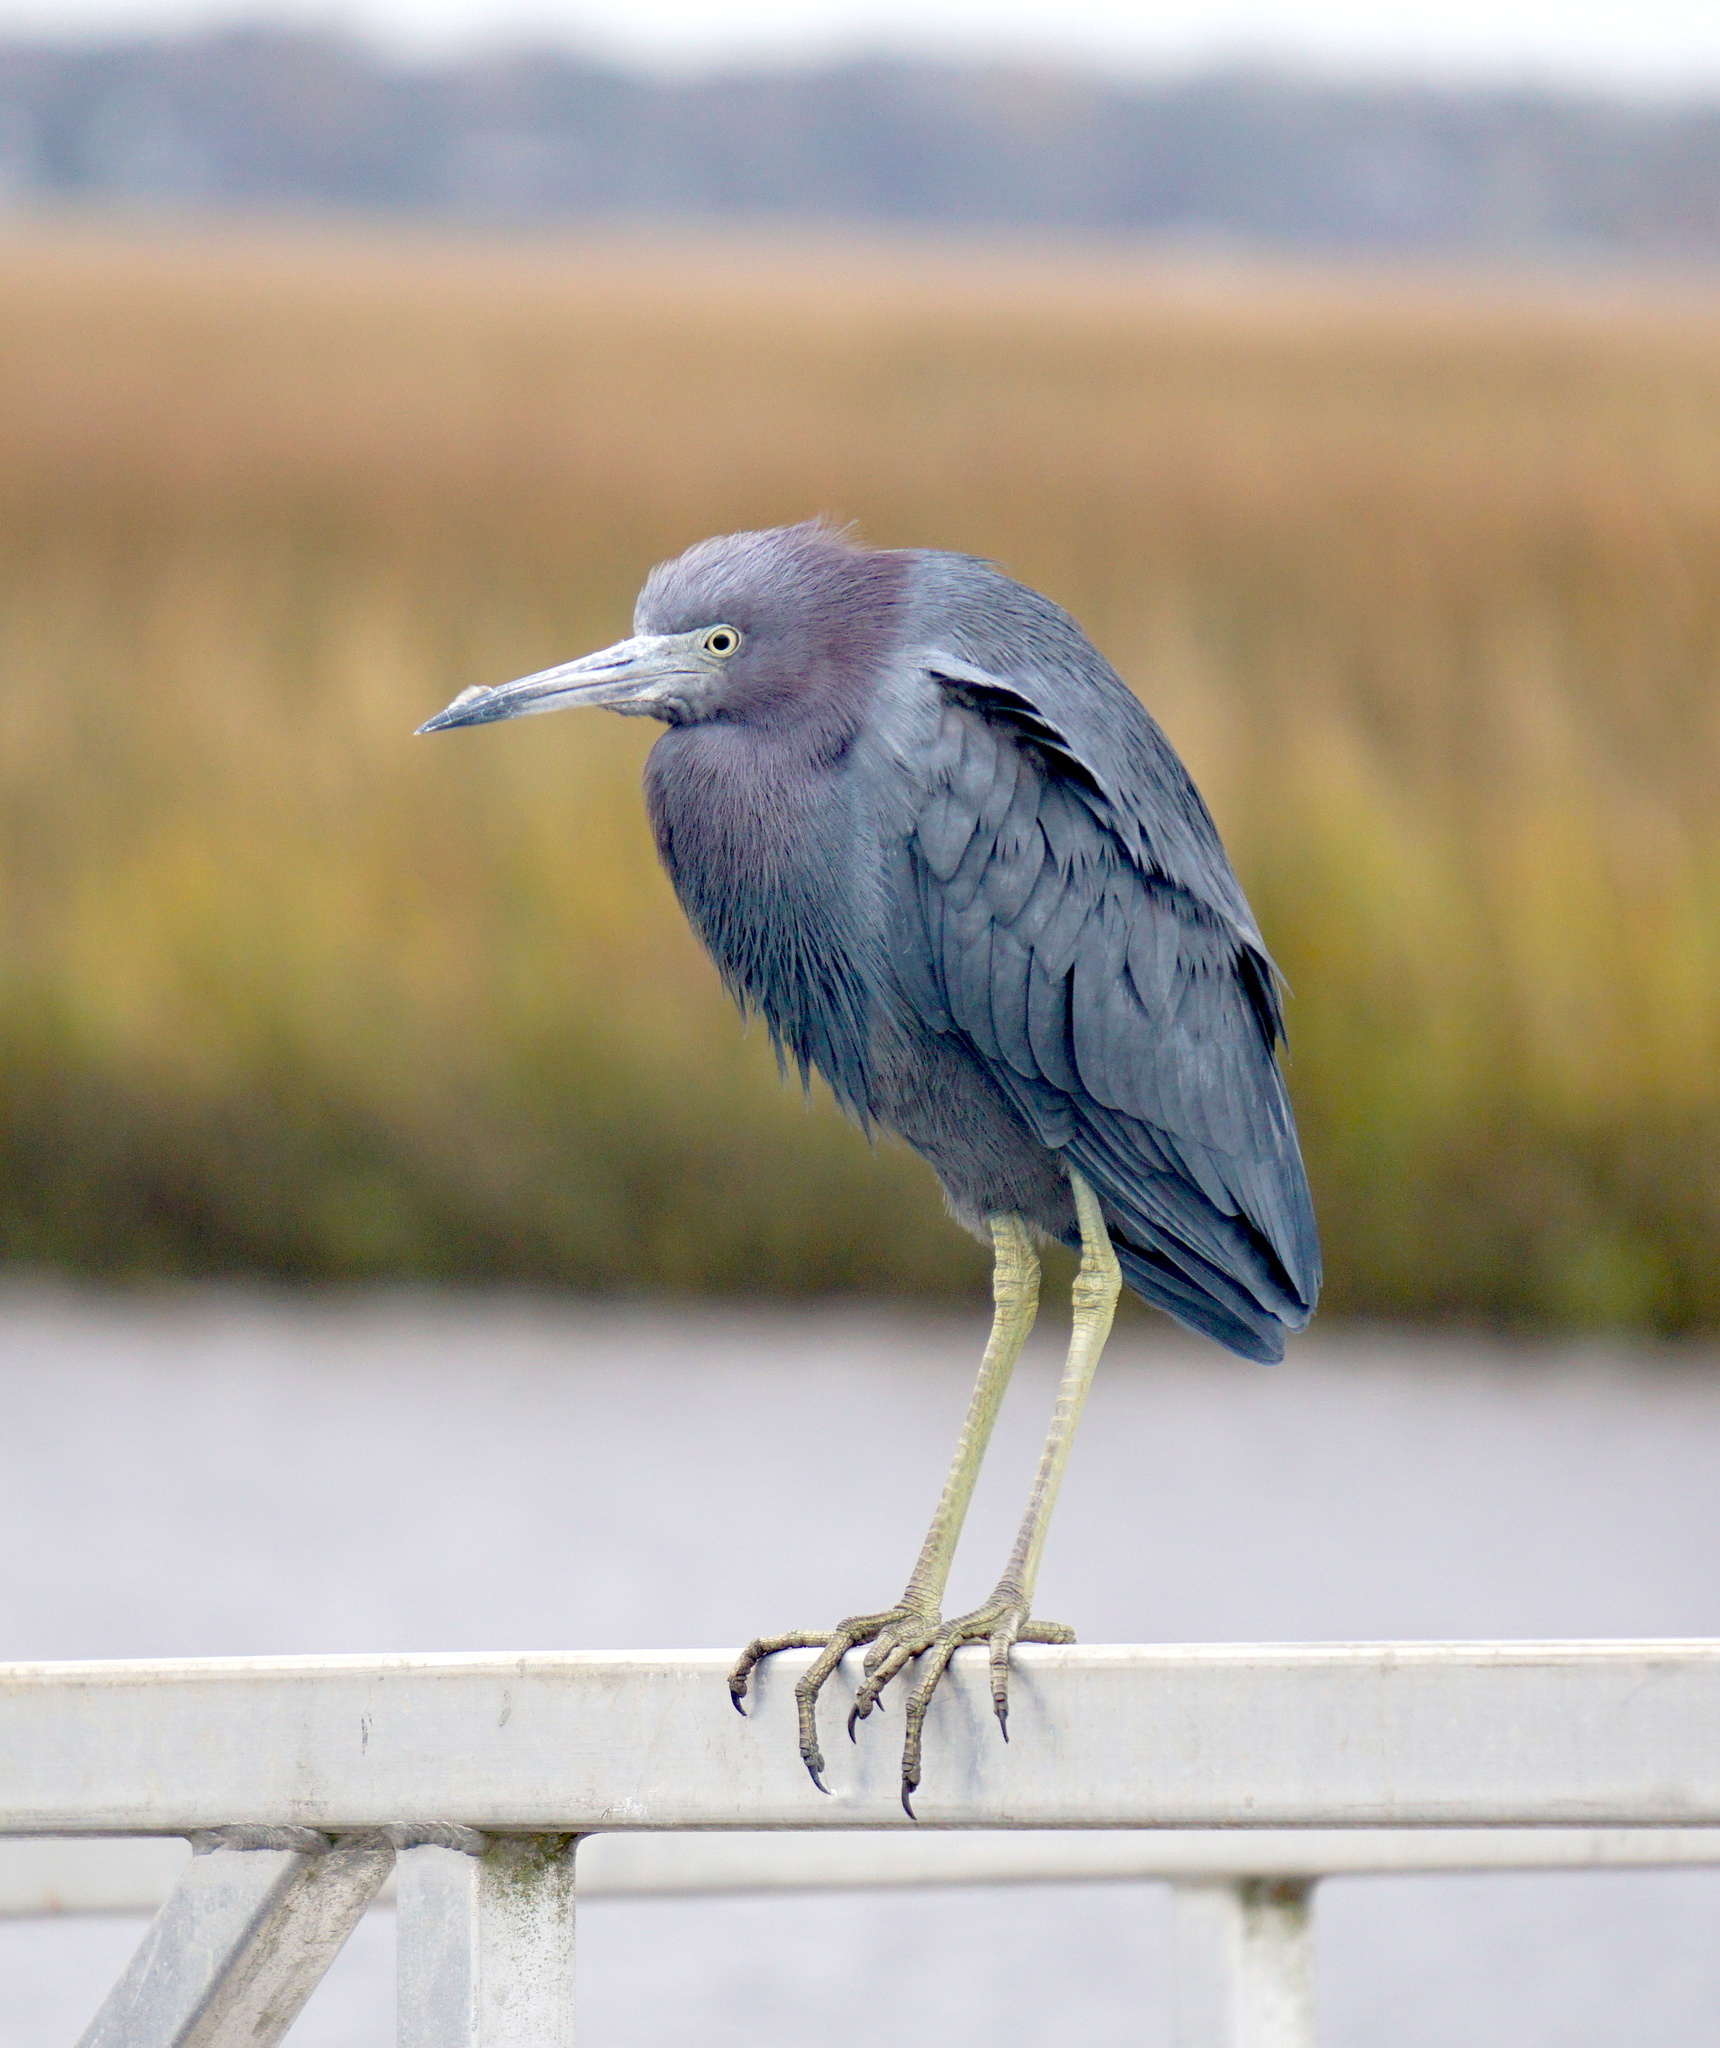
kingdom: Animalia
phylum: Chordata
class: Aves
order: Pelecaniformes
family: Ardeidae
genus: Egretta
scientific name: Egretta caerulea
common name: Little blue heron
